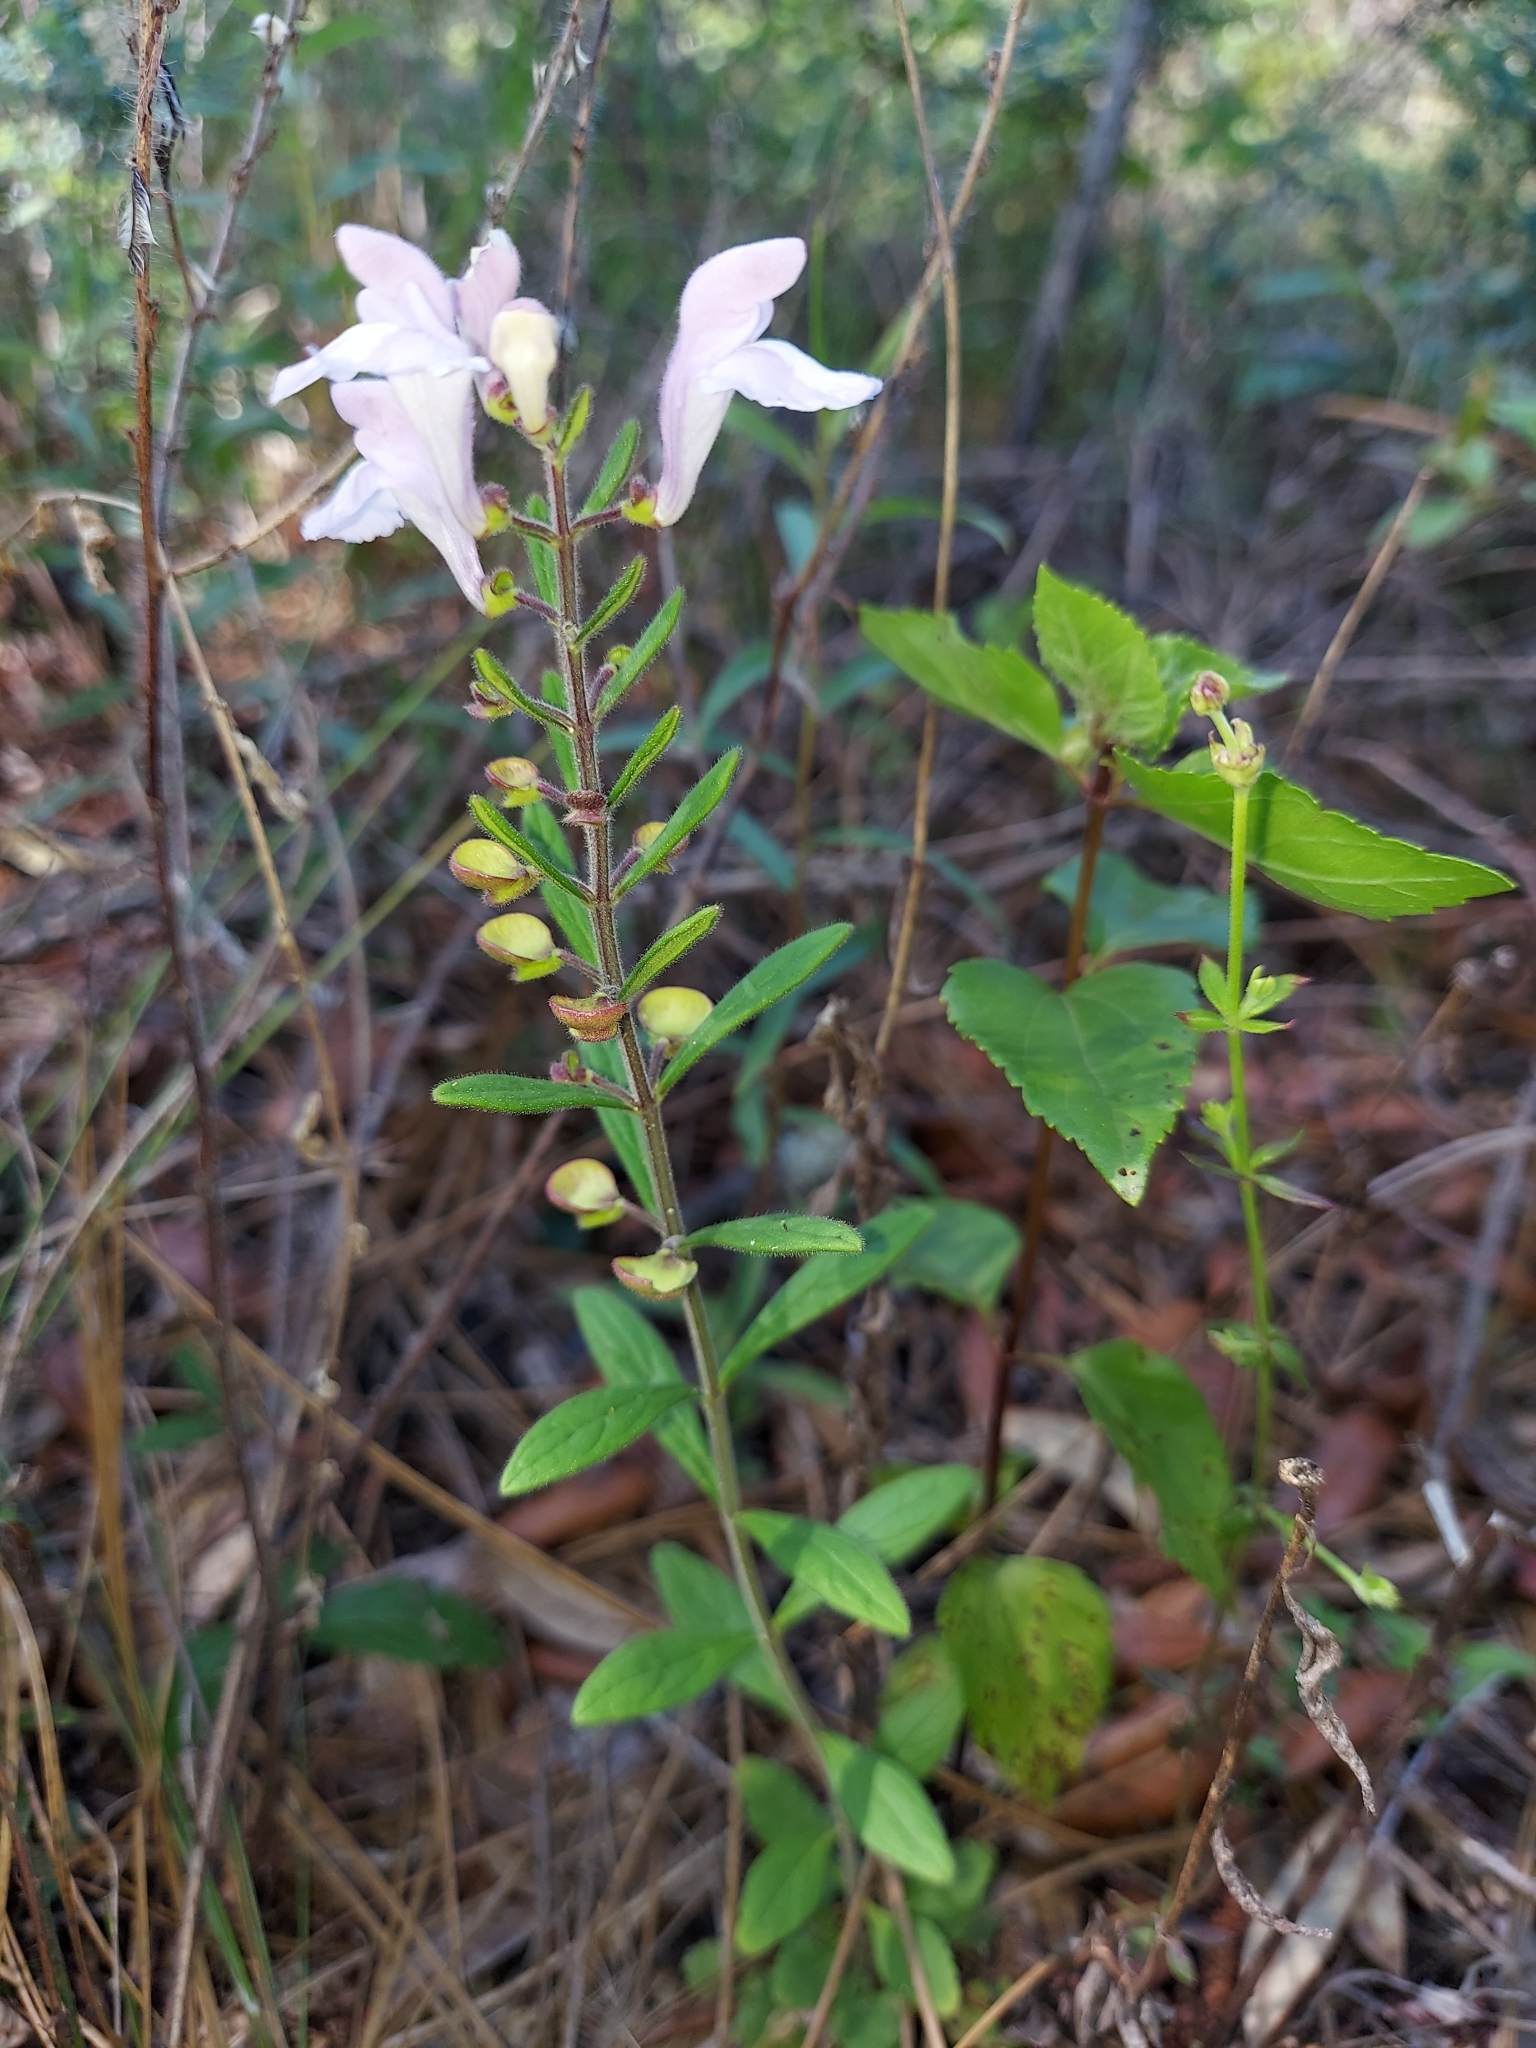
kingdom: Plantae
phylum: Tracheophyta
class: Magnoliopsida
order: Lamiales
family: Lamiaceae
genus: Scutellaria
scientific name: Scutellaria multiglandulosa
